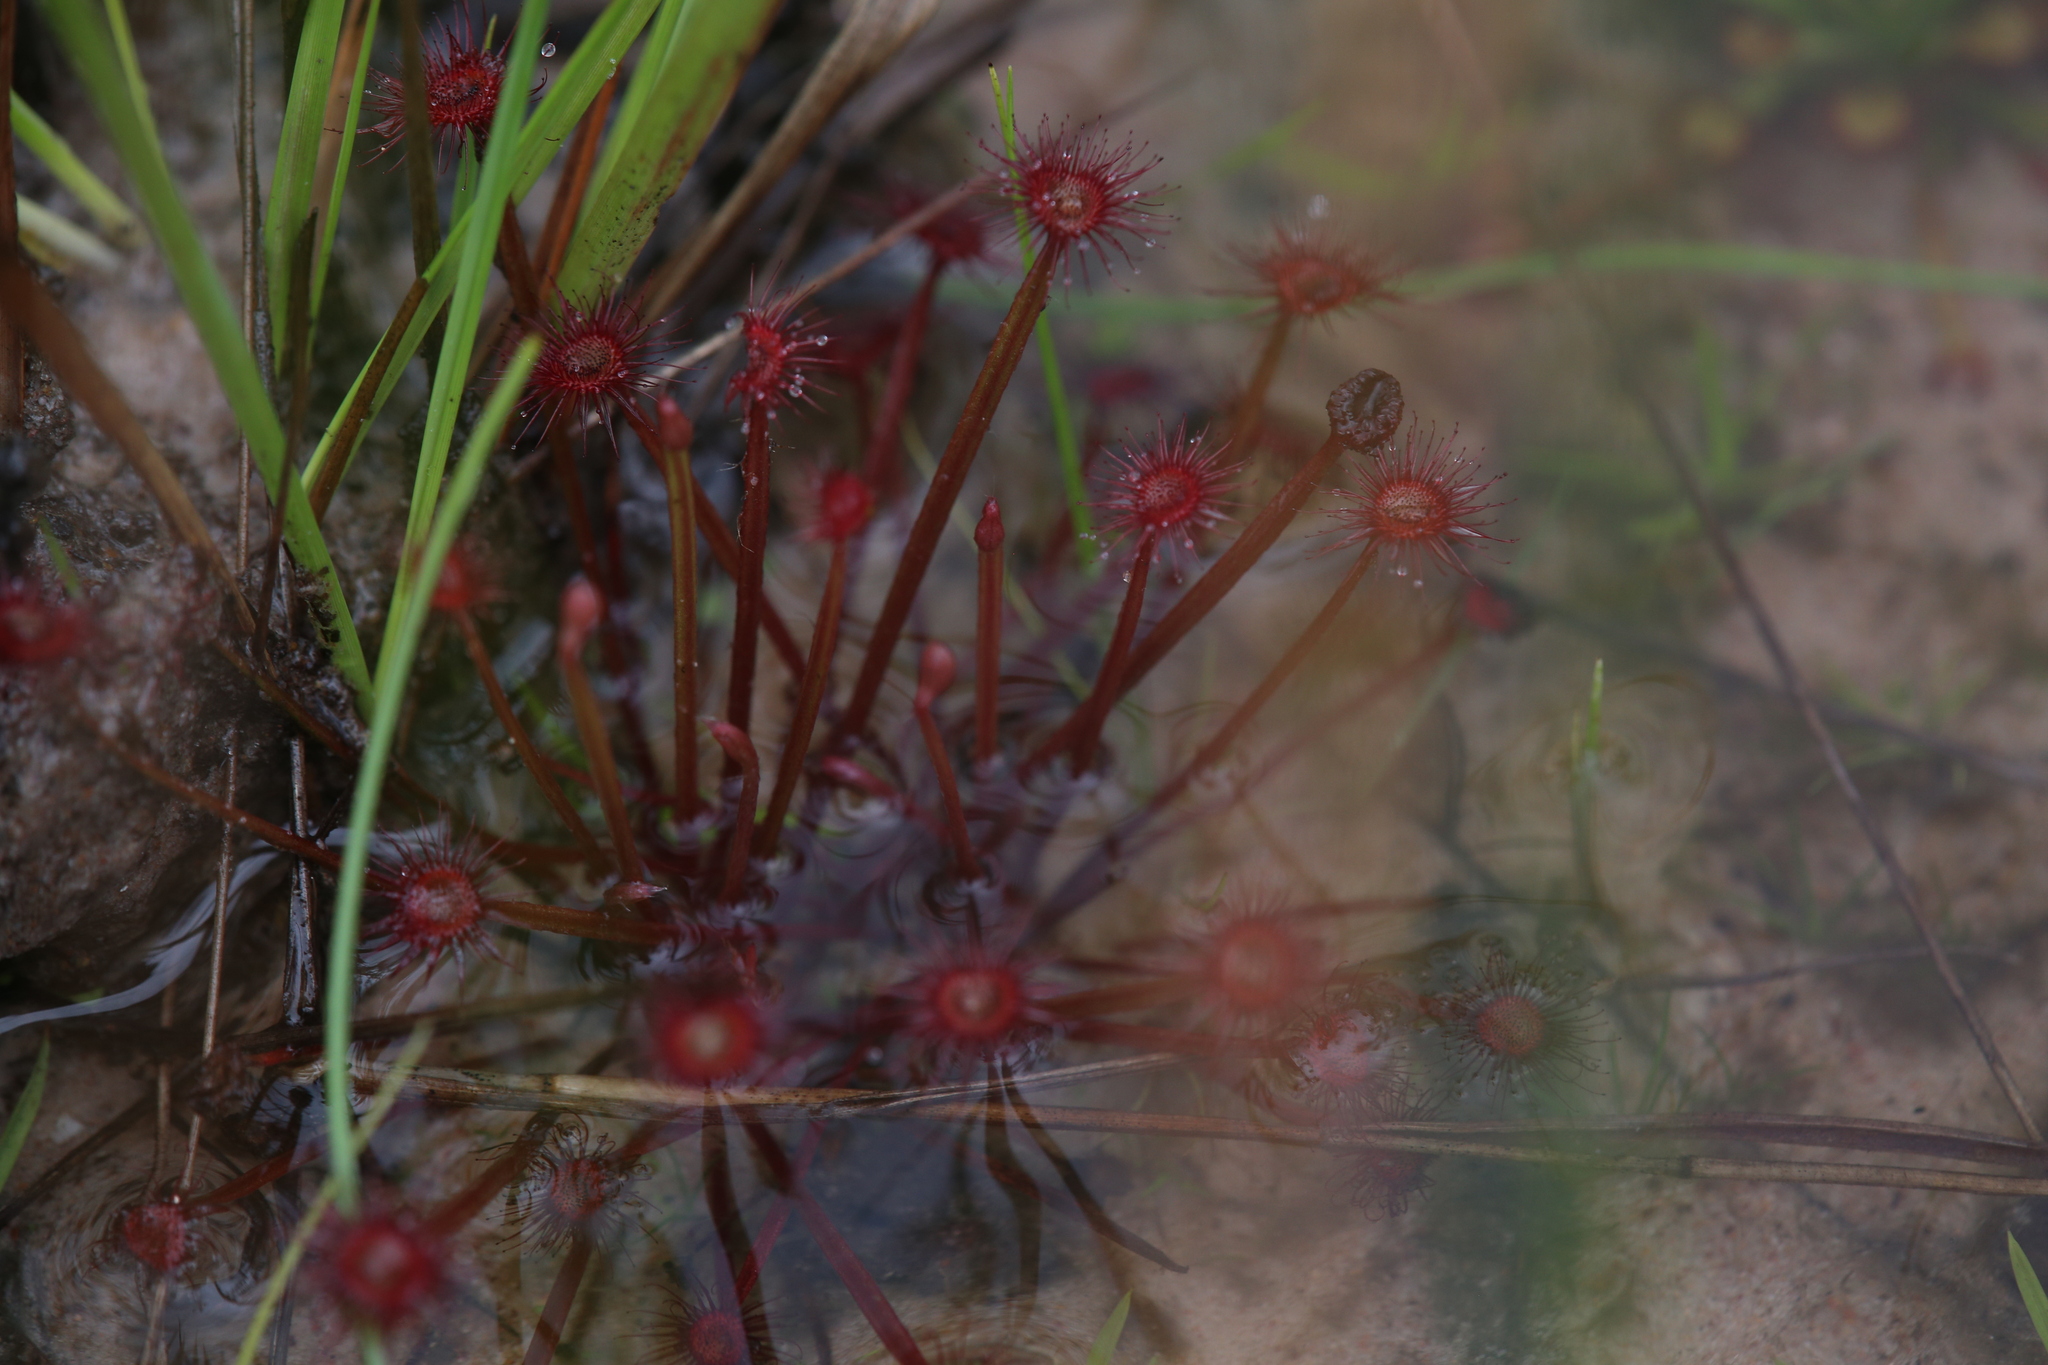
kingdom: Plantae
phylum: Tracheophyta
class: Magnoliopsida
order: Caryophyllales
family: Droseraceae
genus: Drosera
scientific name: Drosera dilatatopetiolaris
